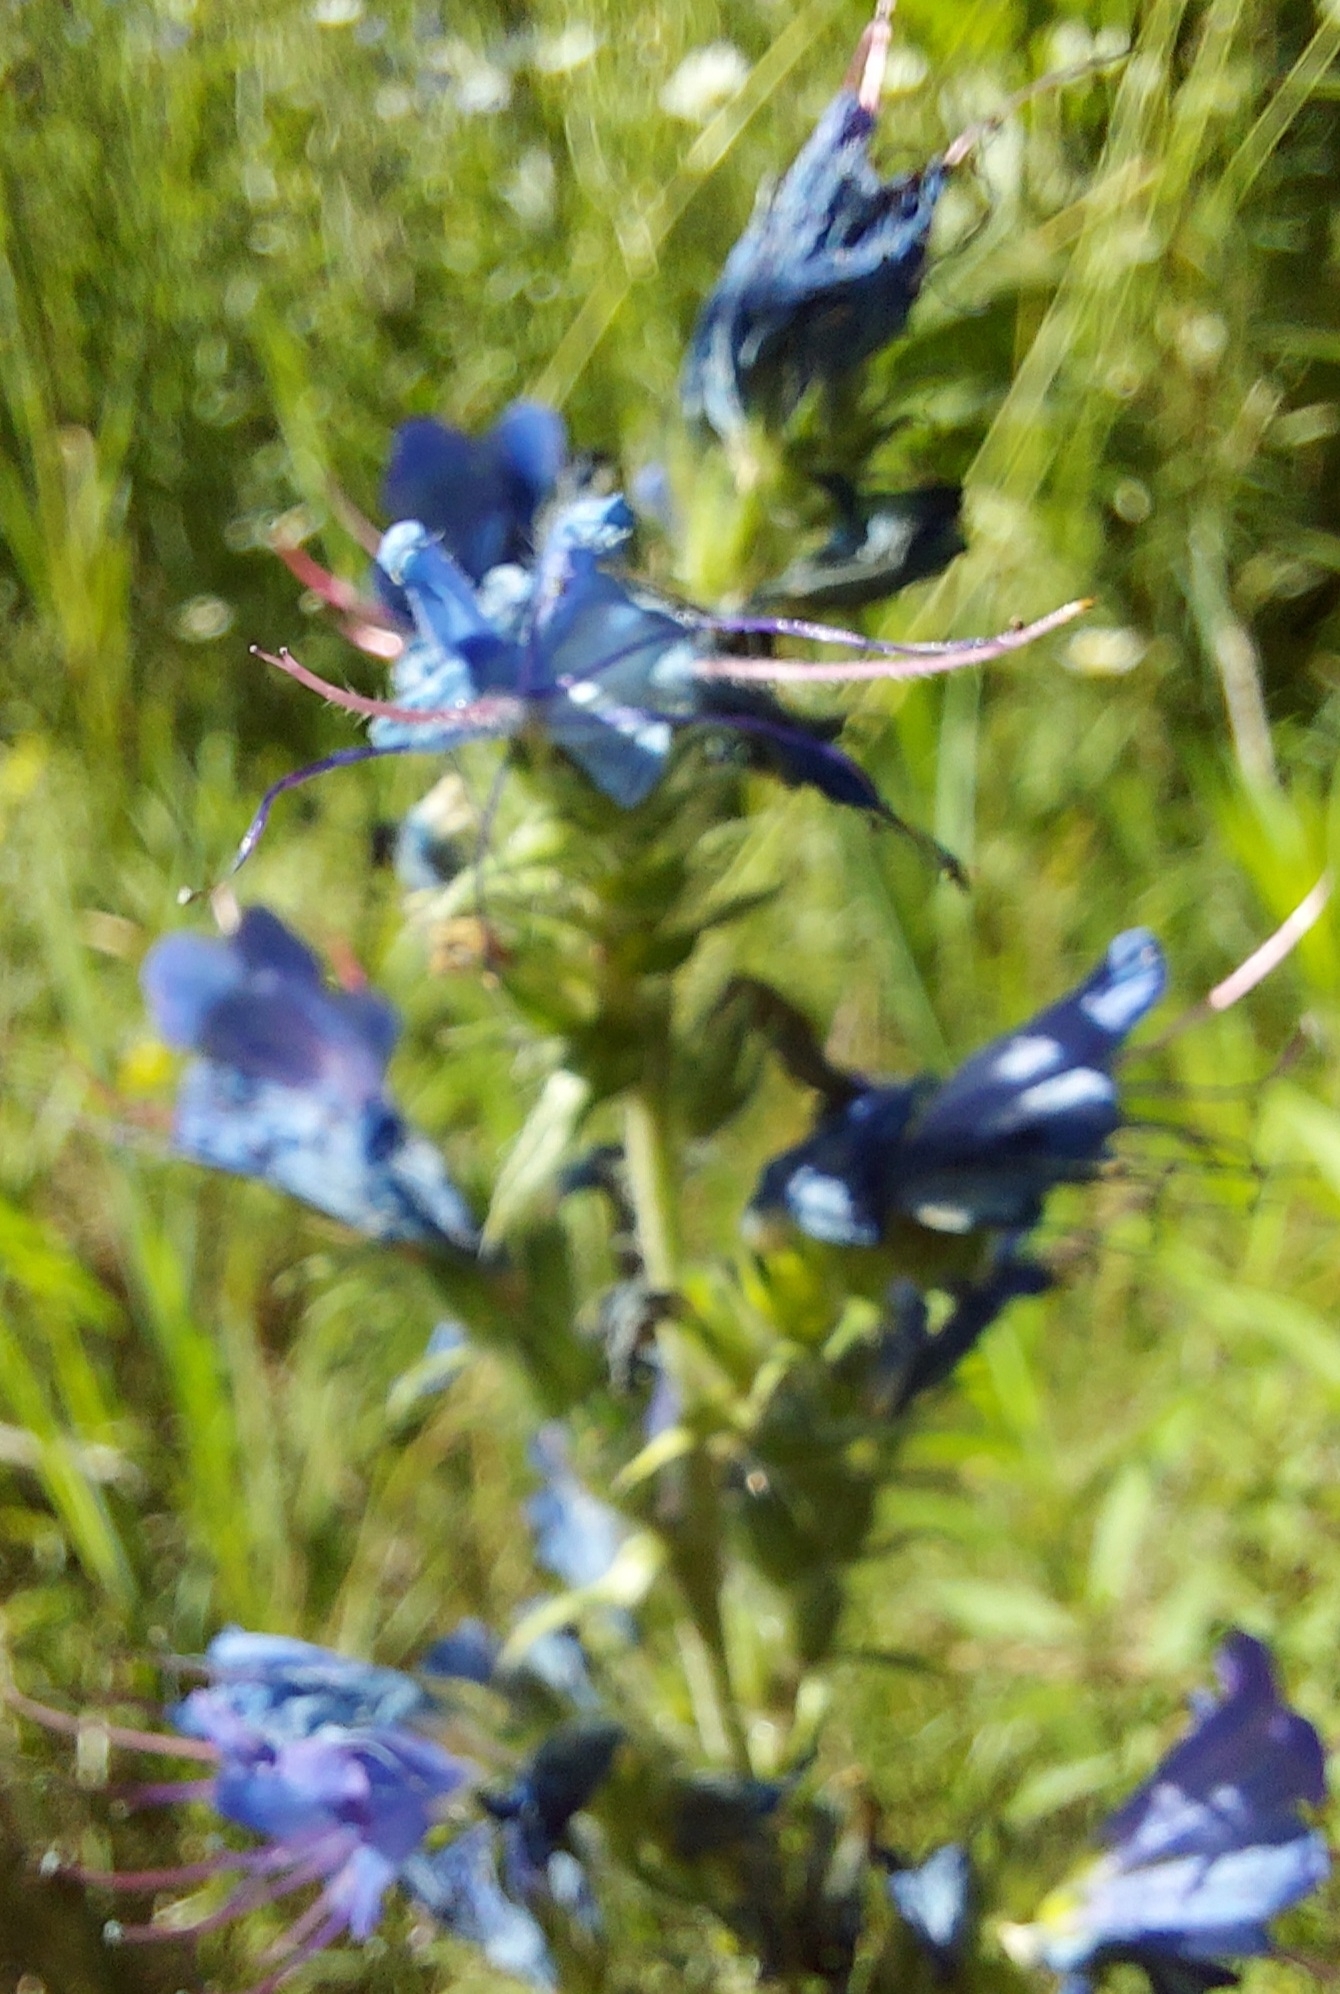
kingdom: Plantae
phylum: Tracheophyta
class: Magnoliopsida
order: Boraginales
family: Boraginaceae
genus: Echium
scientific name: Echium vulgare
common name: Common viper's bugloss
